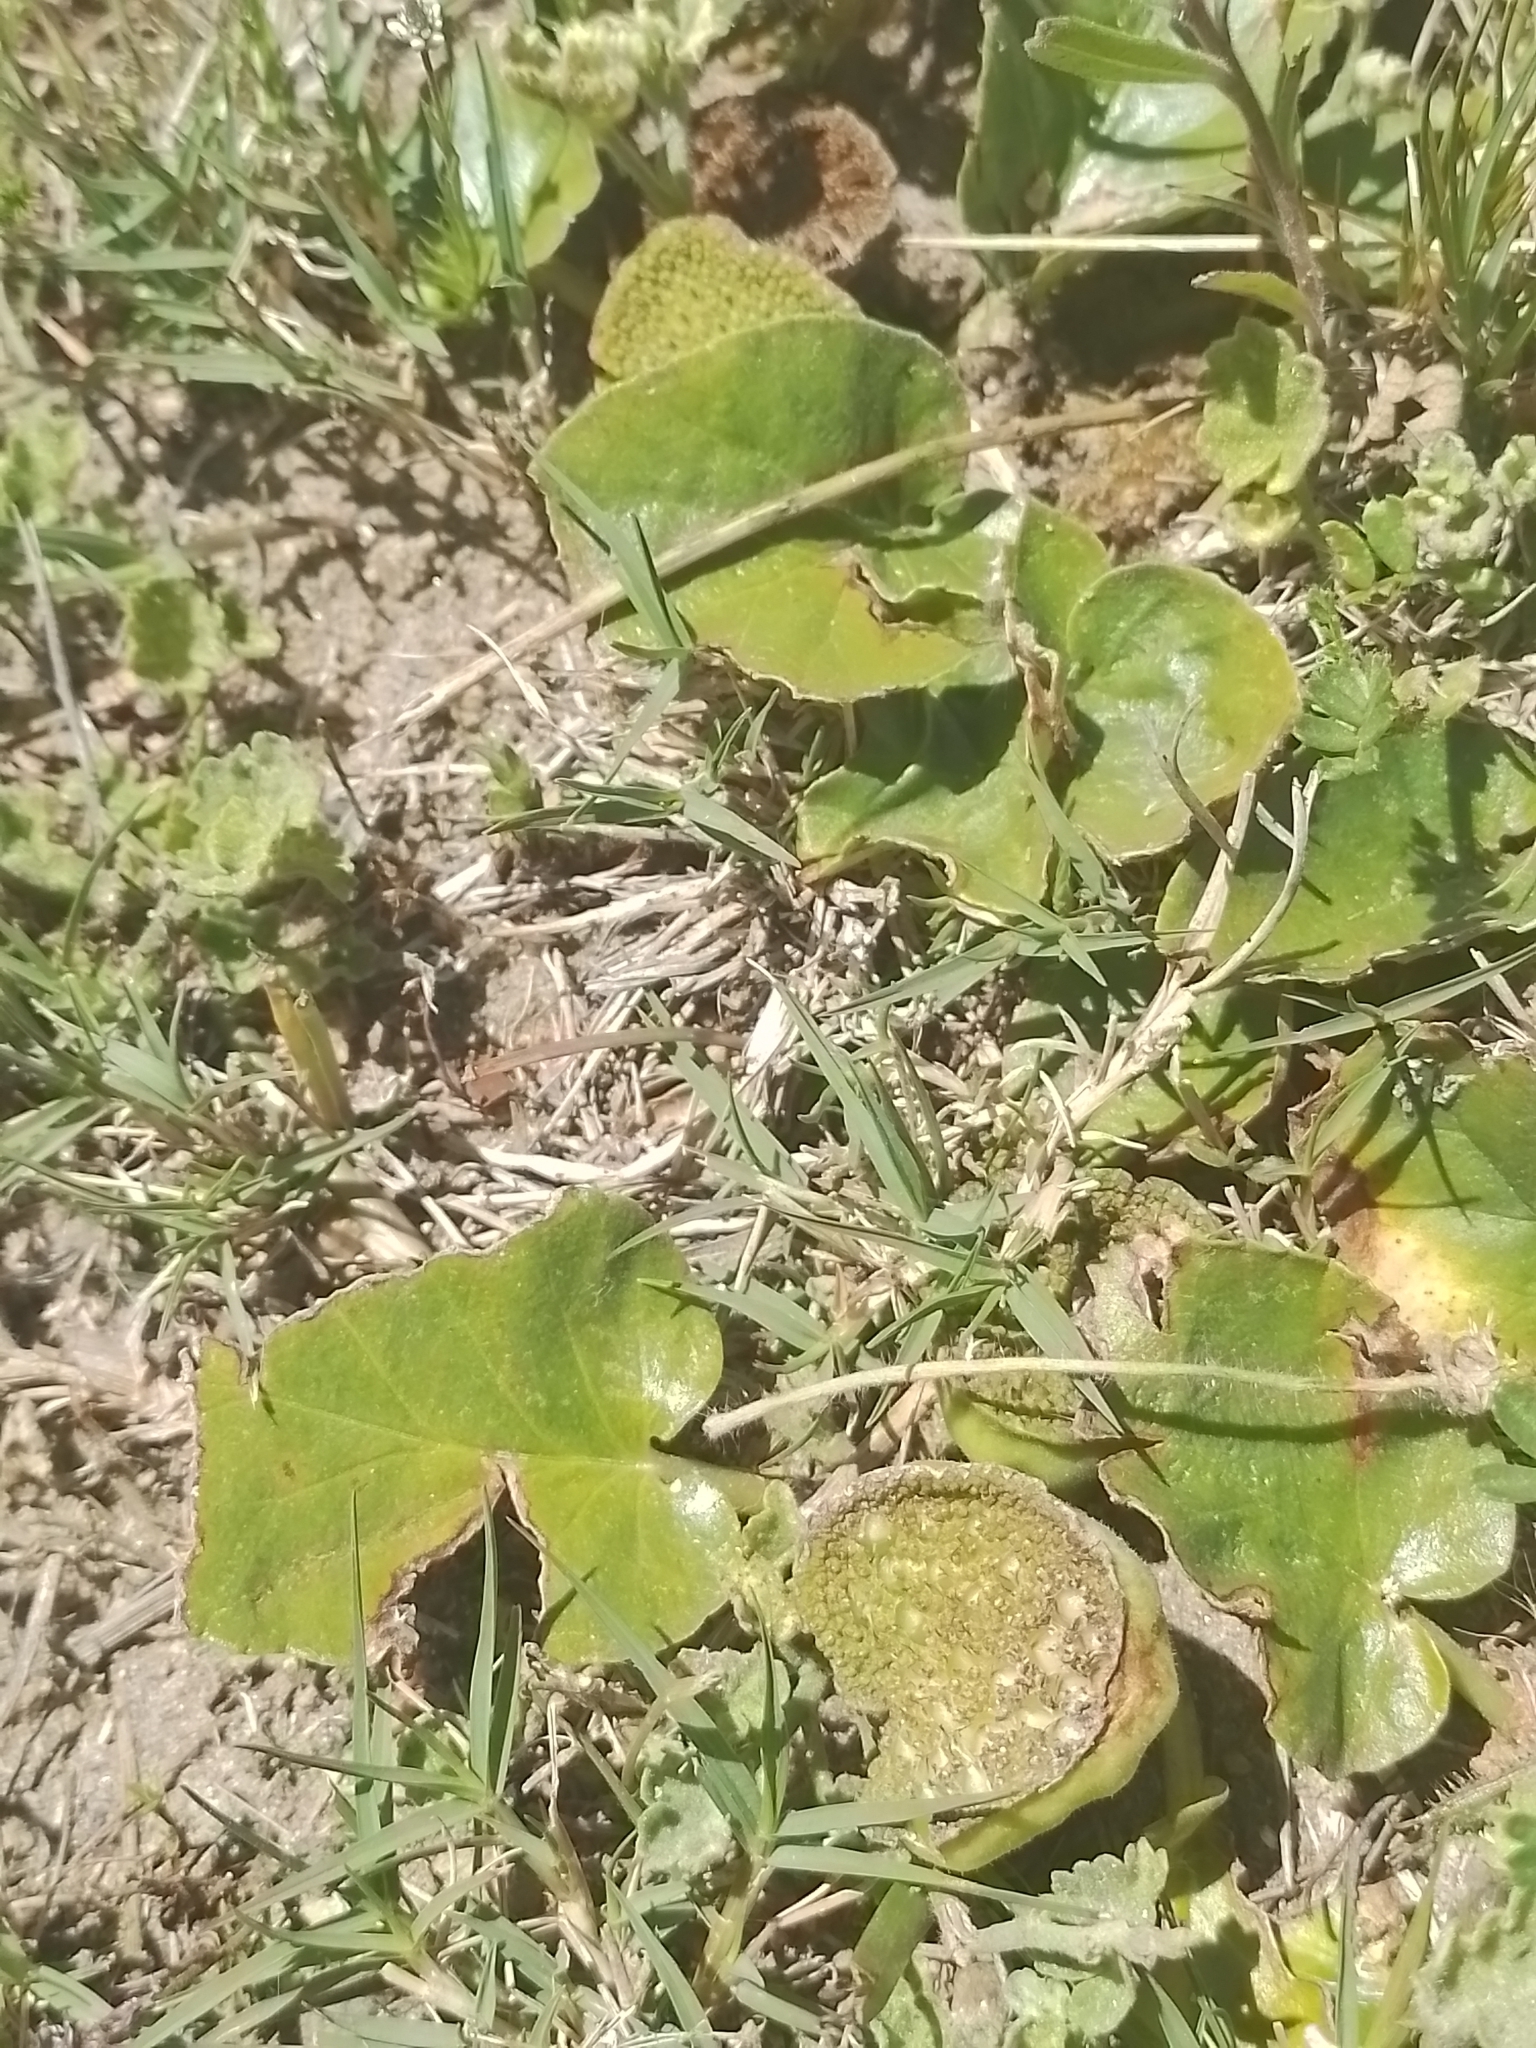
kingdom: Plantae
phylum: Tracheophyta
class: Magnoliopsida
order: Rosales
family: Moraceae
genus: Dorstenia
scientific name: Dorstenia brasiliensis
